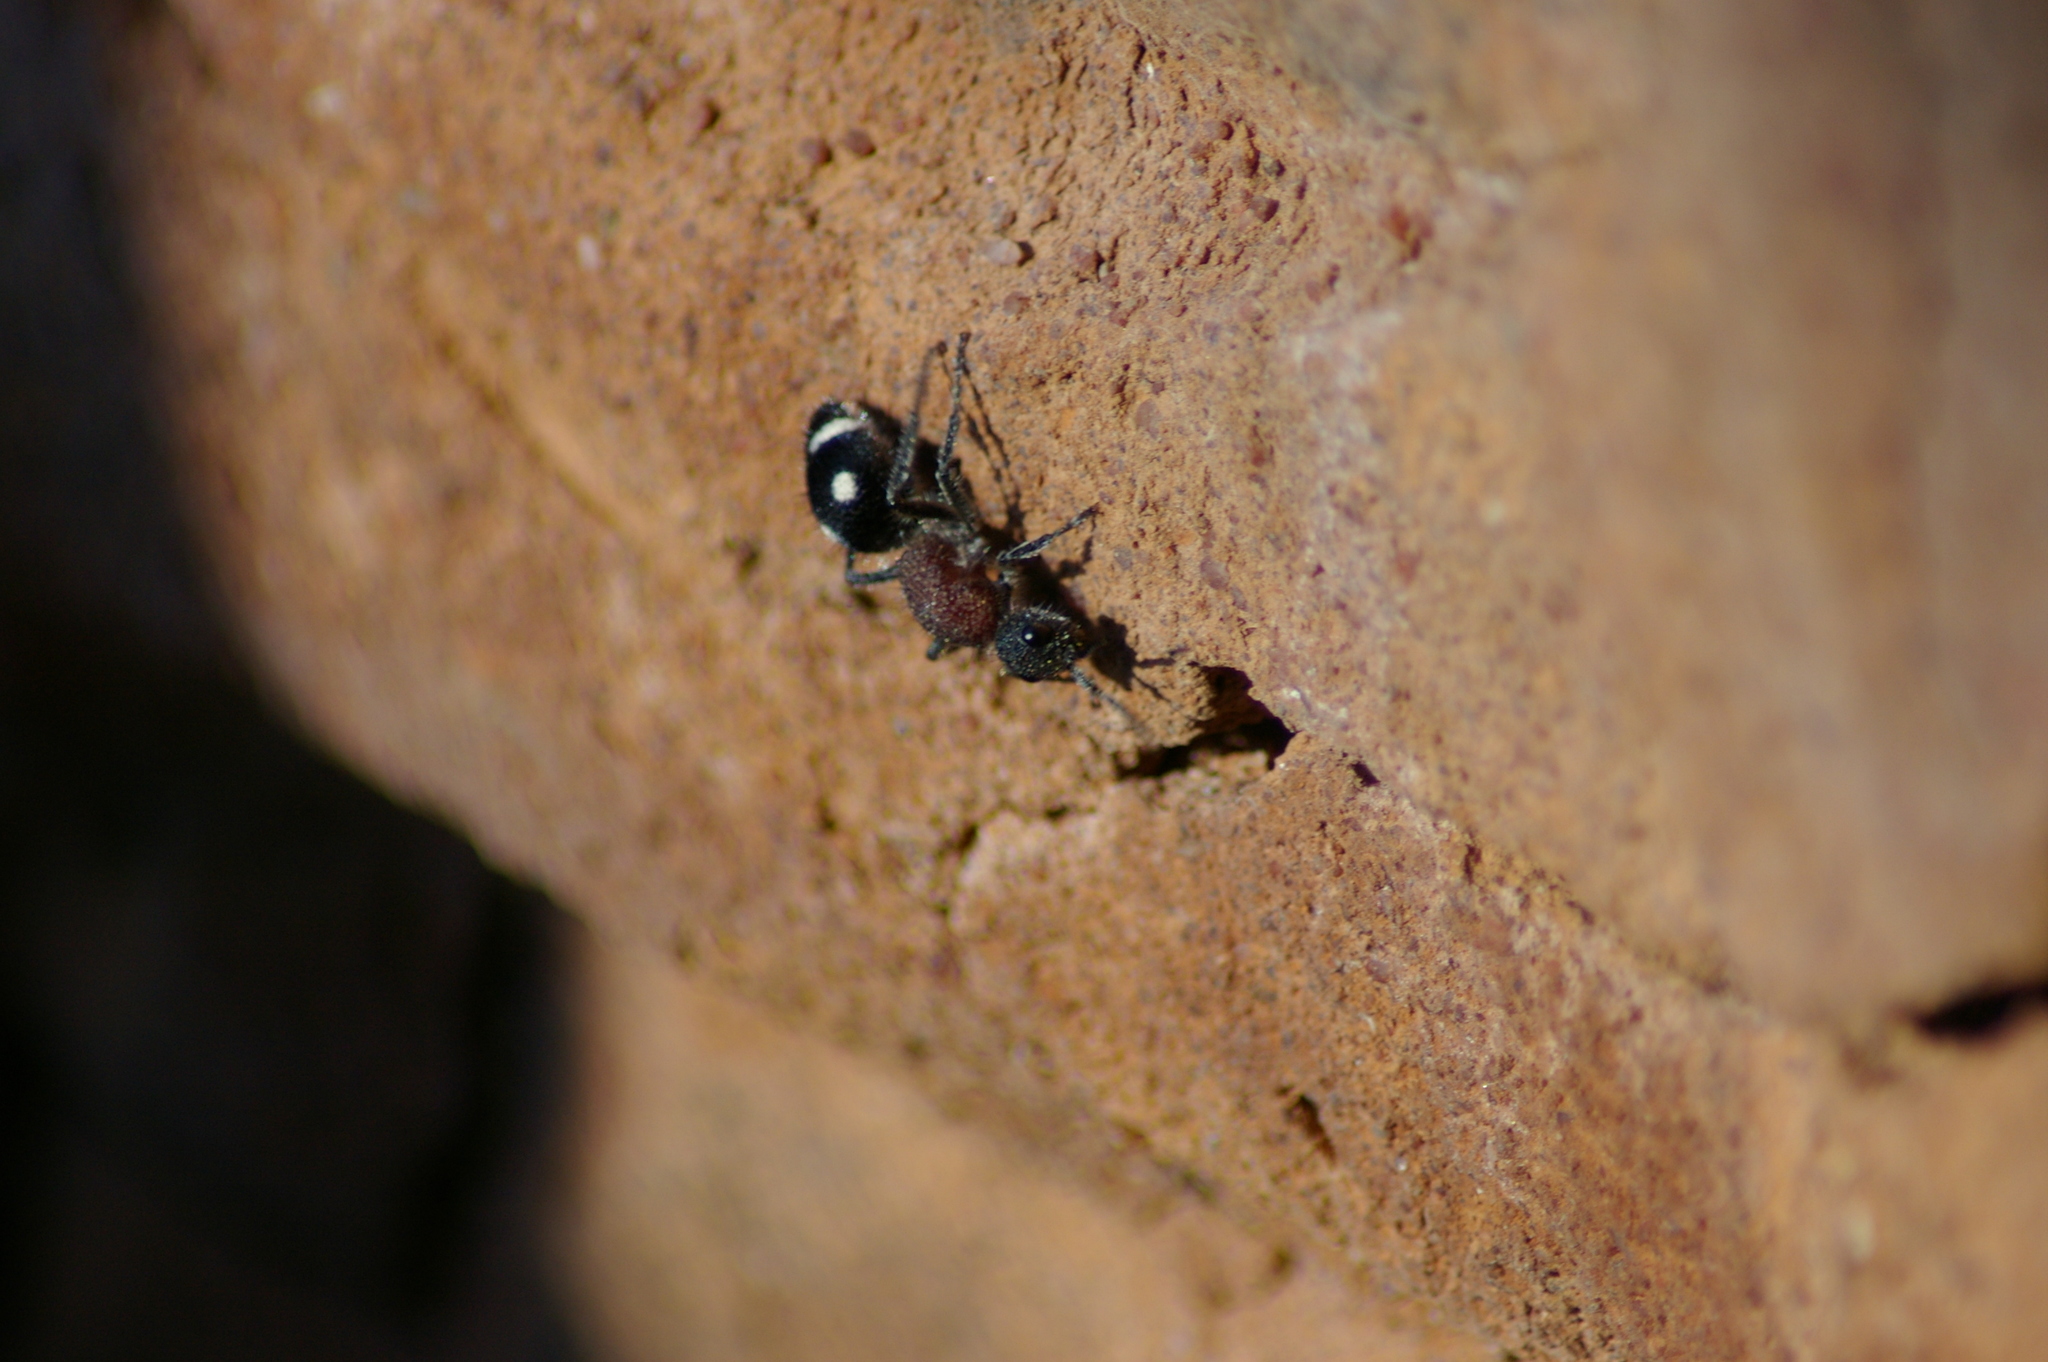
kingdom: Animalia
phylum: Arthropoda
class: Insecta
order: Hymenoptera
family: Mutillidae
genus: Dolichomutilla
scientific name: Dolichomutilla
